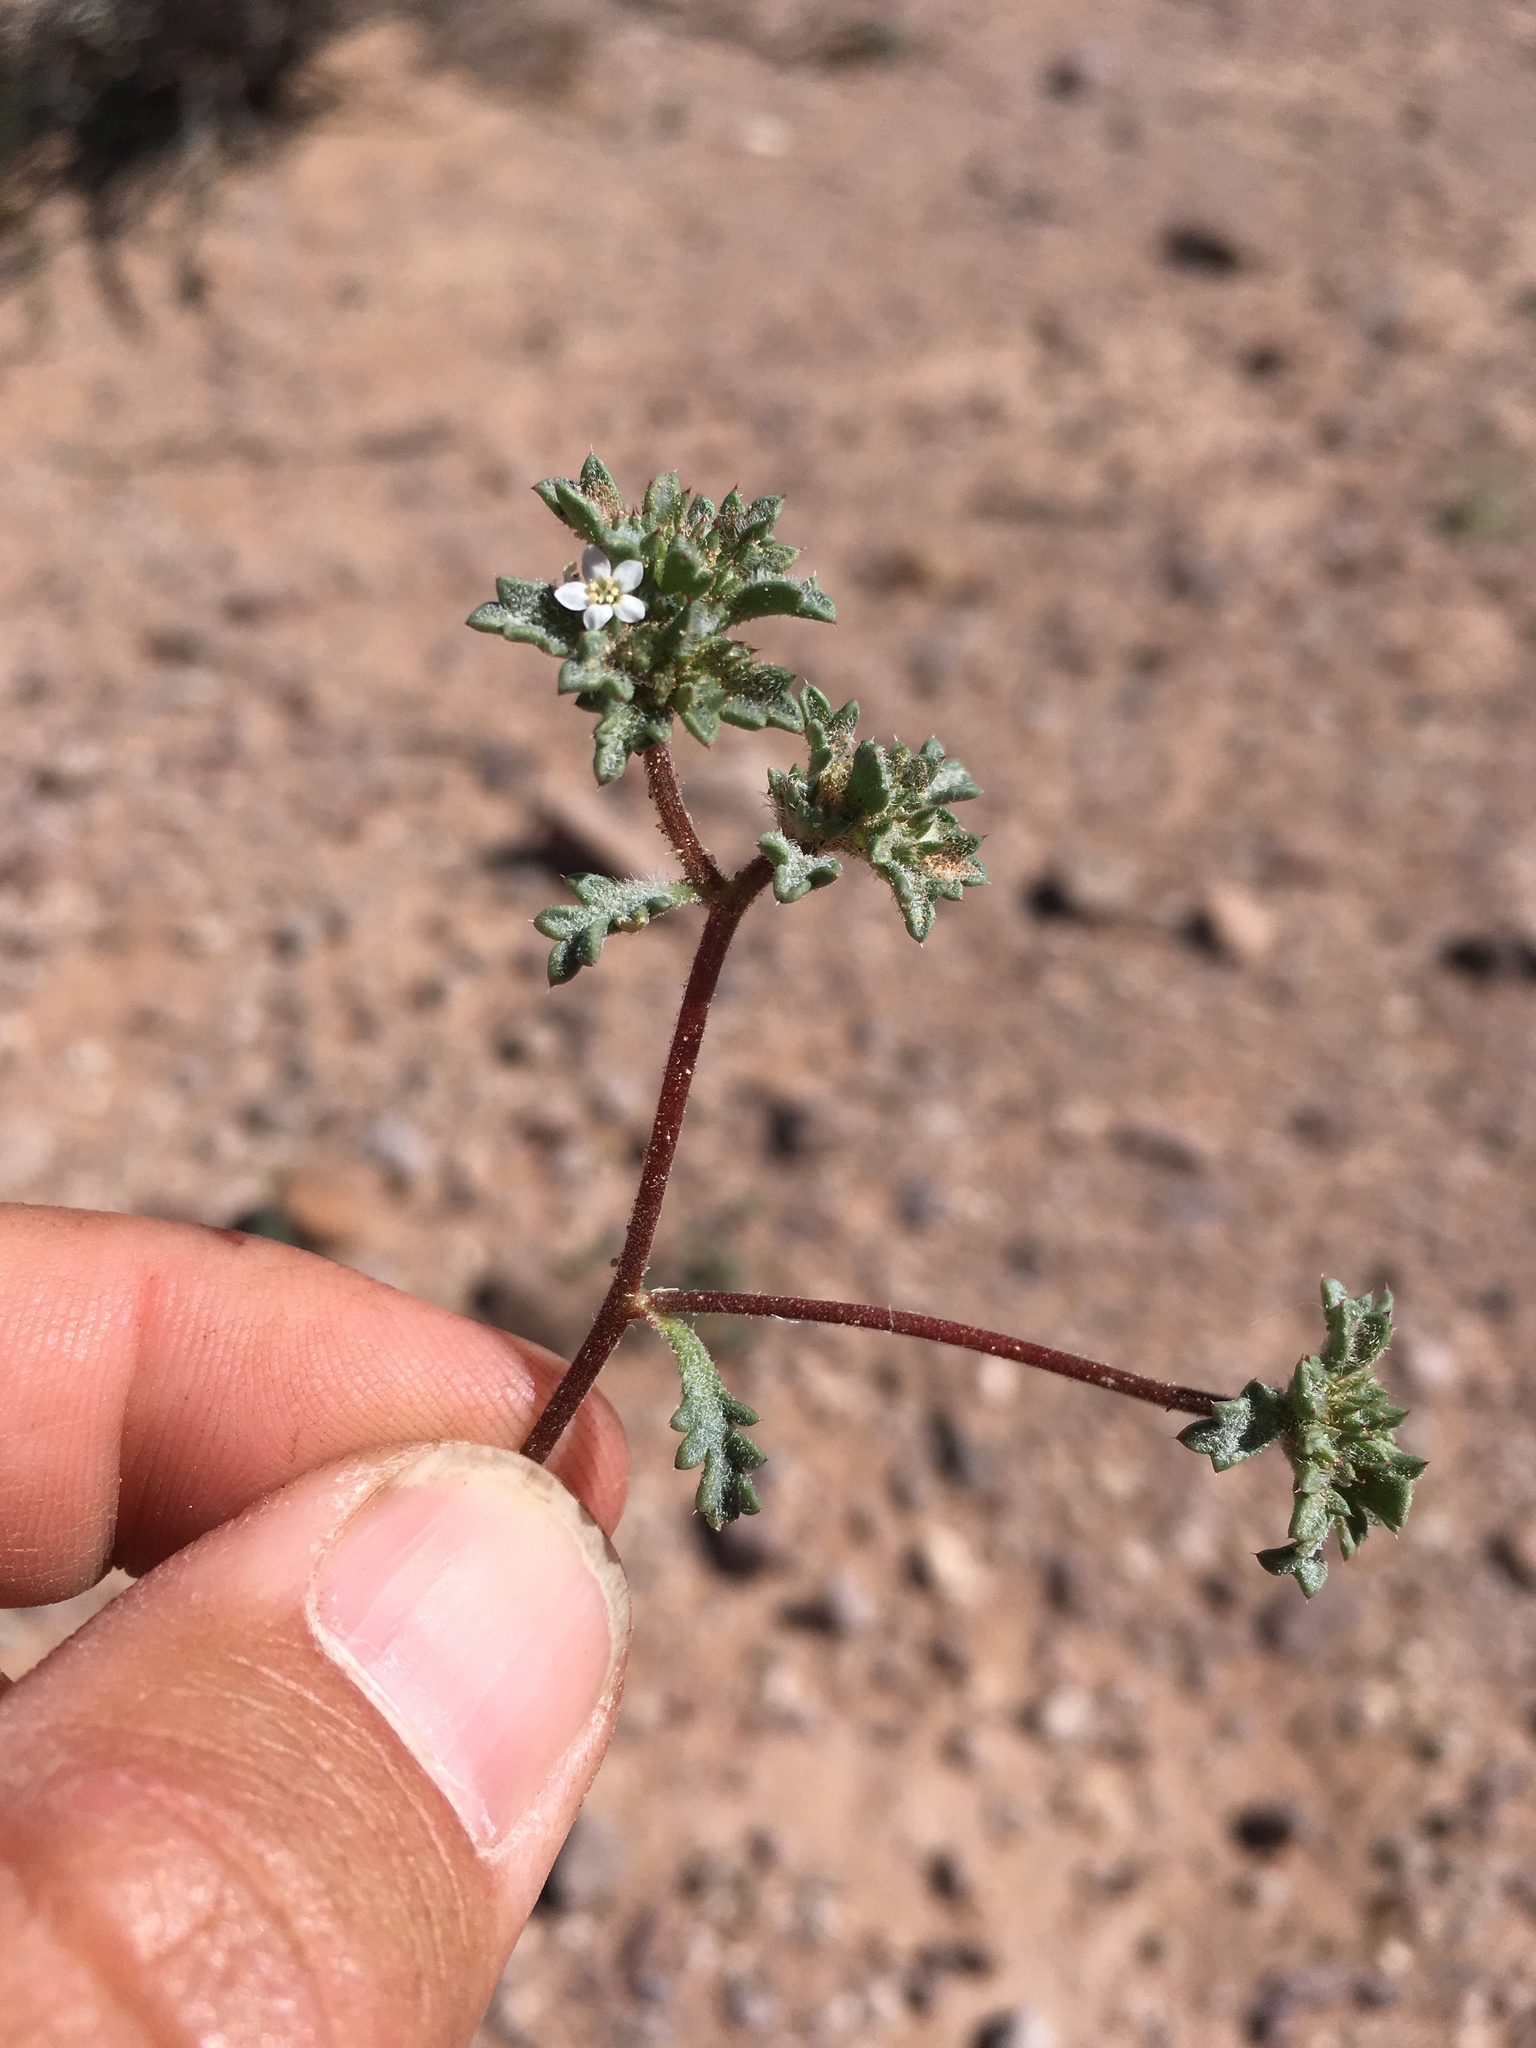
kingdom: Plantae
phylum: Tracheophyta
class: Magnoliopsida
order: Ericales
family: Polemoniaceae
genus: Ipomopsis
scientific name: Ipomopsis polycladon
